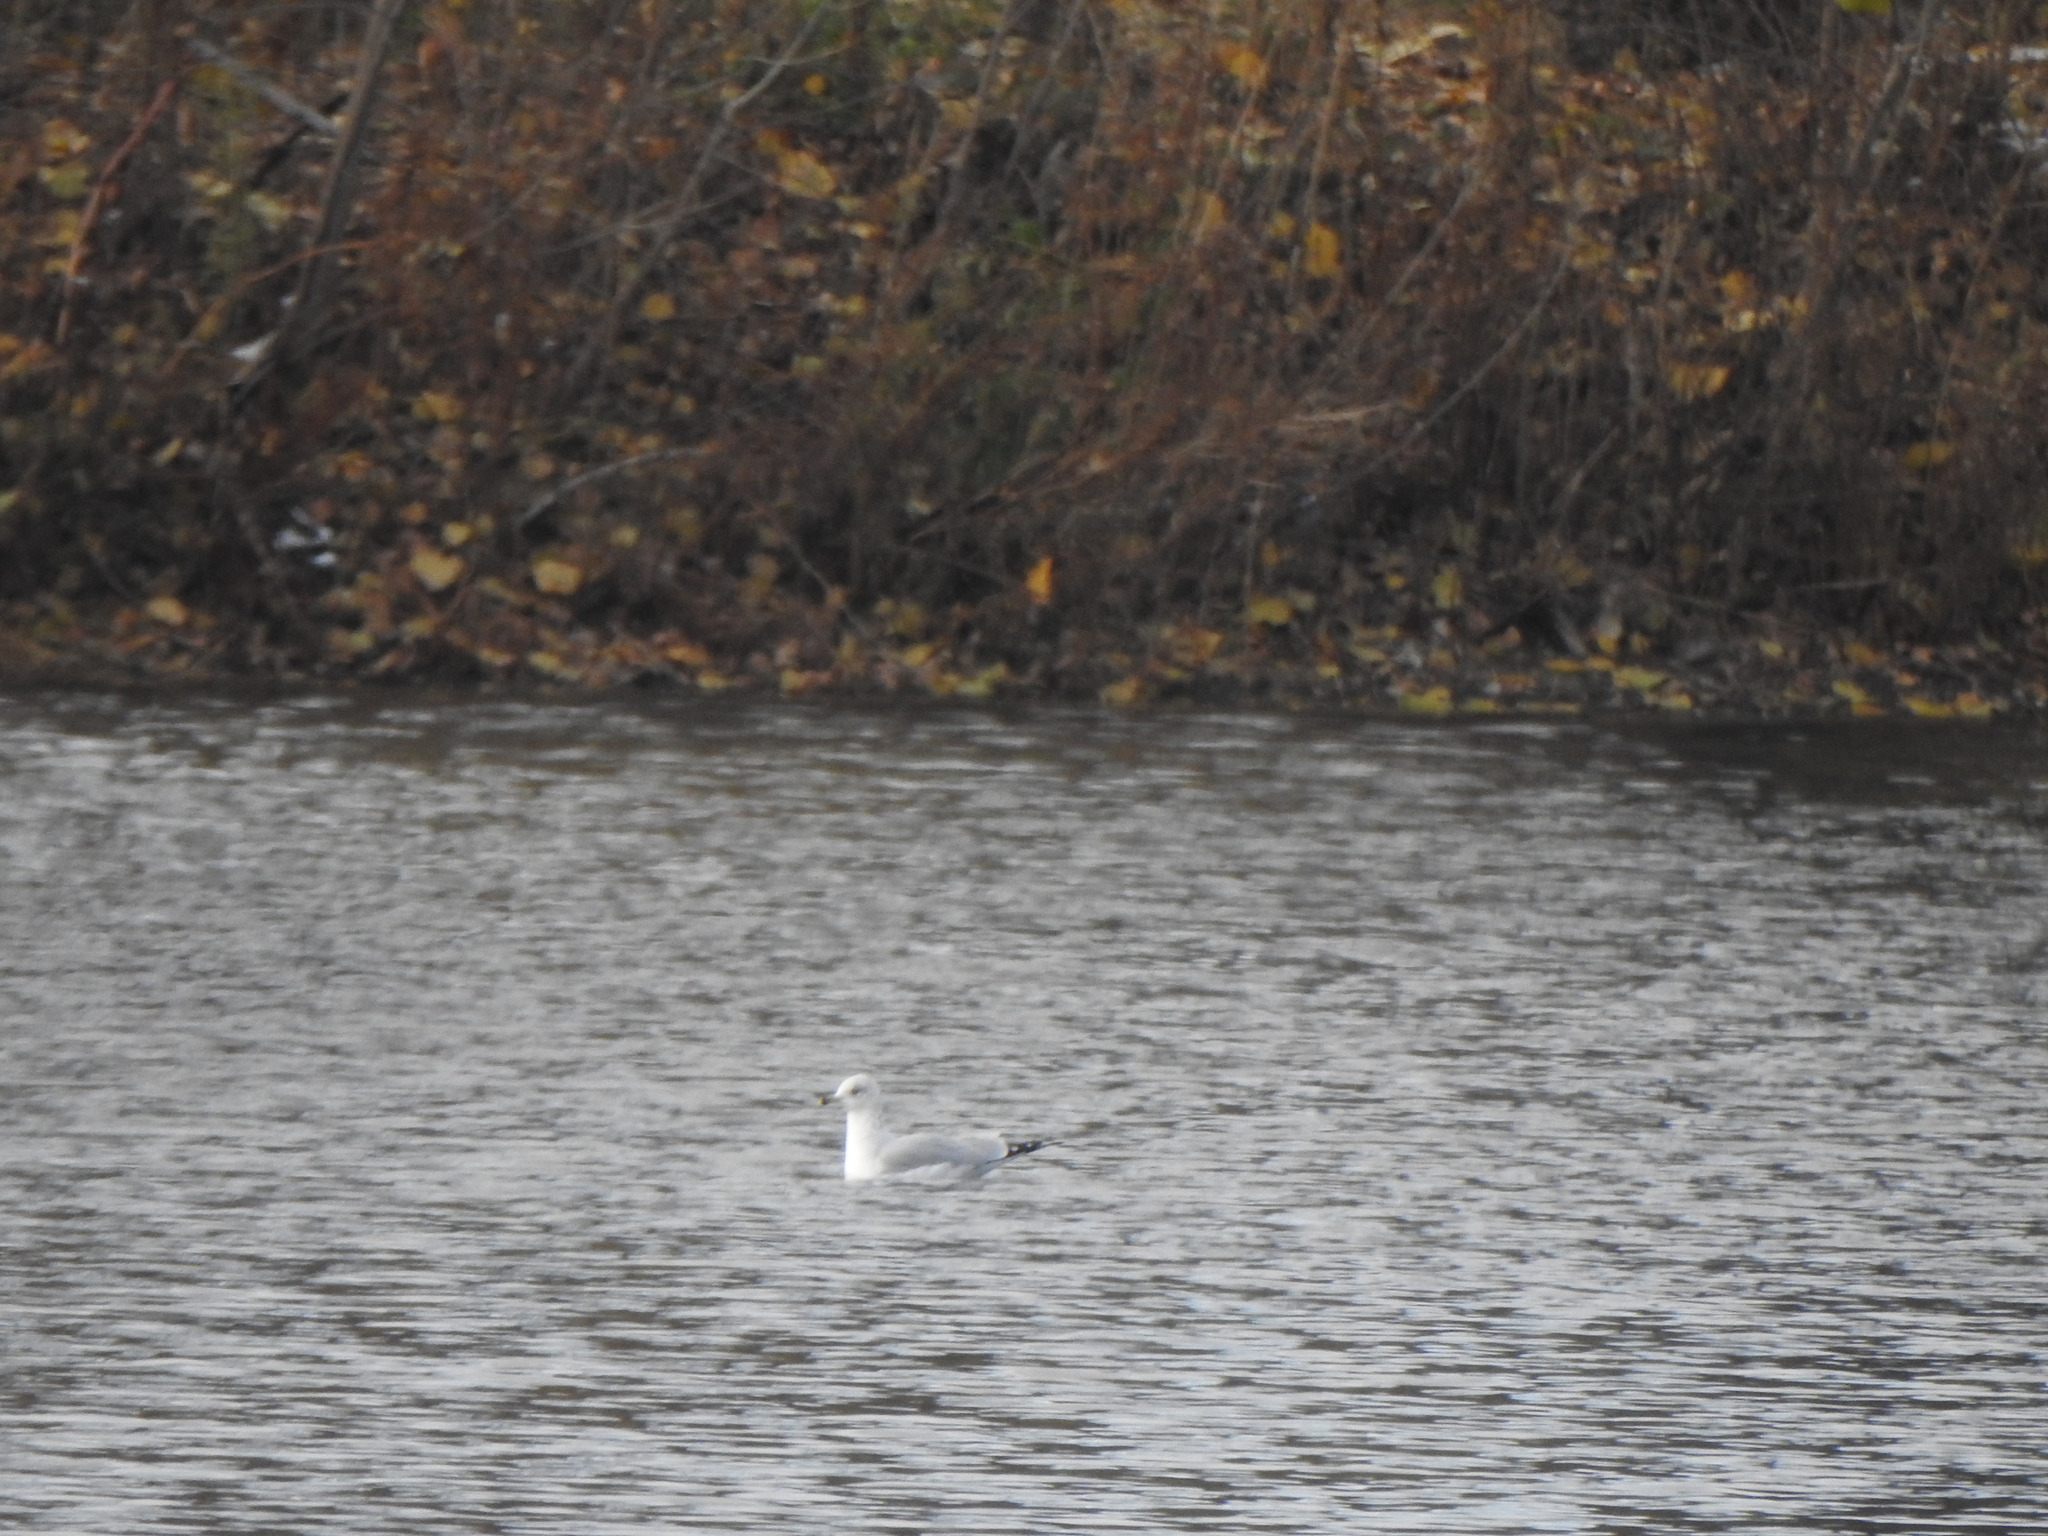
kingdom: Animalia
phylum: Chordata
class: Aves
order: Charadriiformes
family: Laridae
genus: Larus
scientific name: Larus delawarensis
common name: Ring-billed gull
